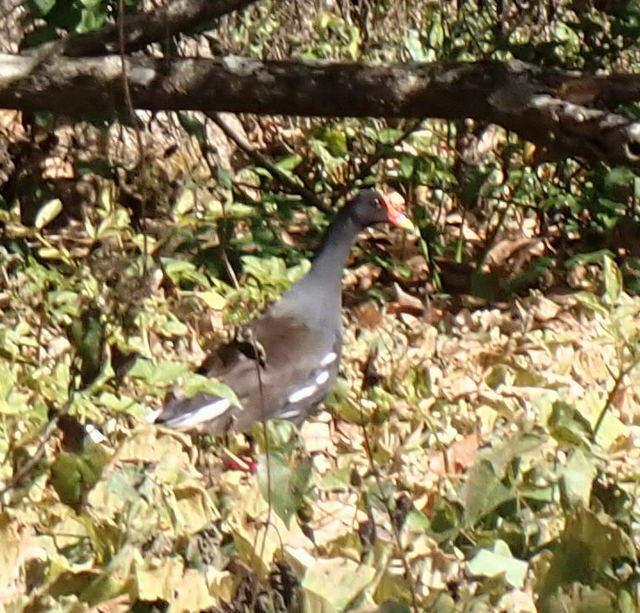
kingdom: Animalia
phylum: Chordata
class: Aves
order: Gruiformes
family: Rallidae
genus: Gallinula
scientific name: Gallinula chloropus
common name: Common moorhen
